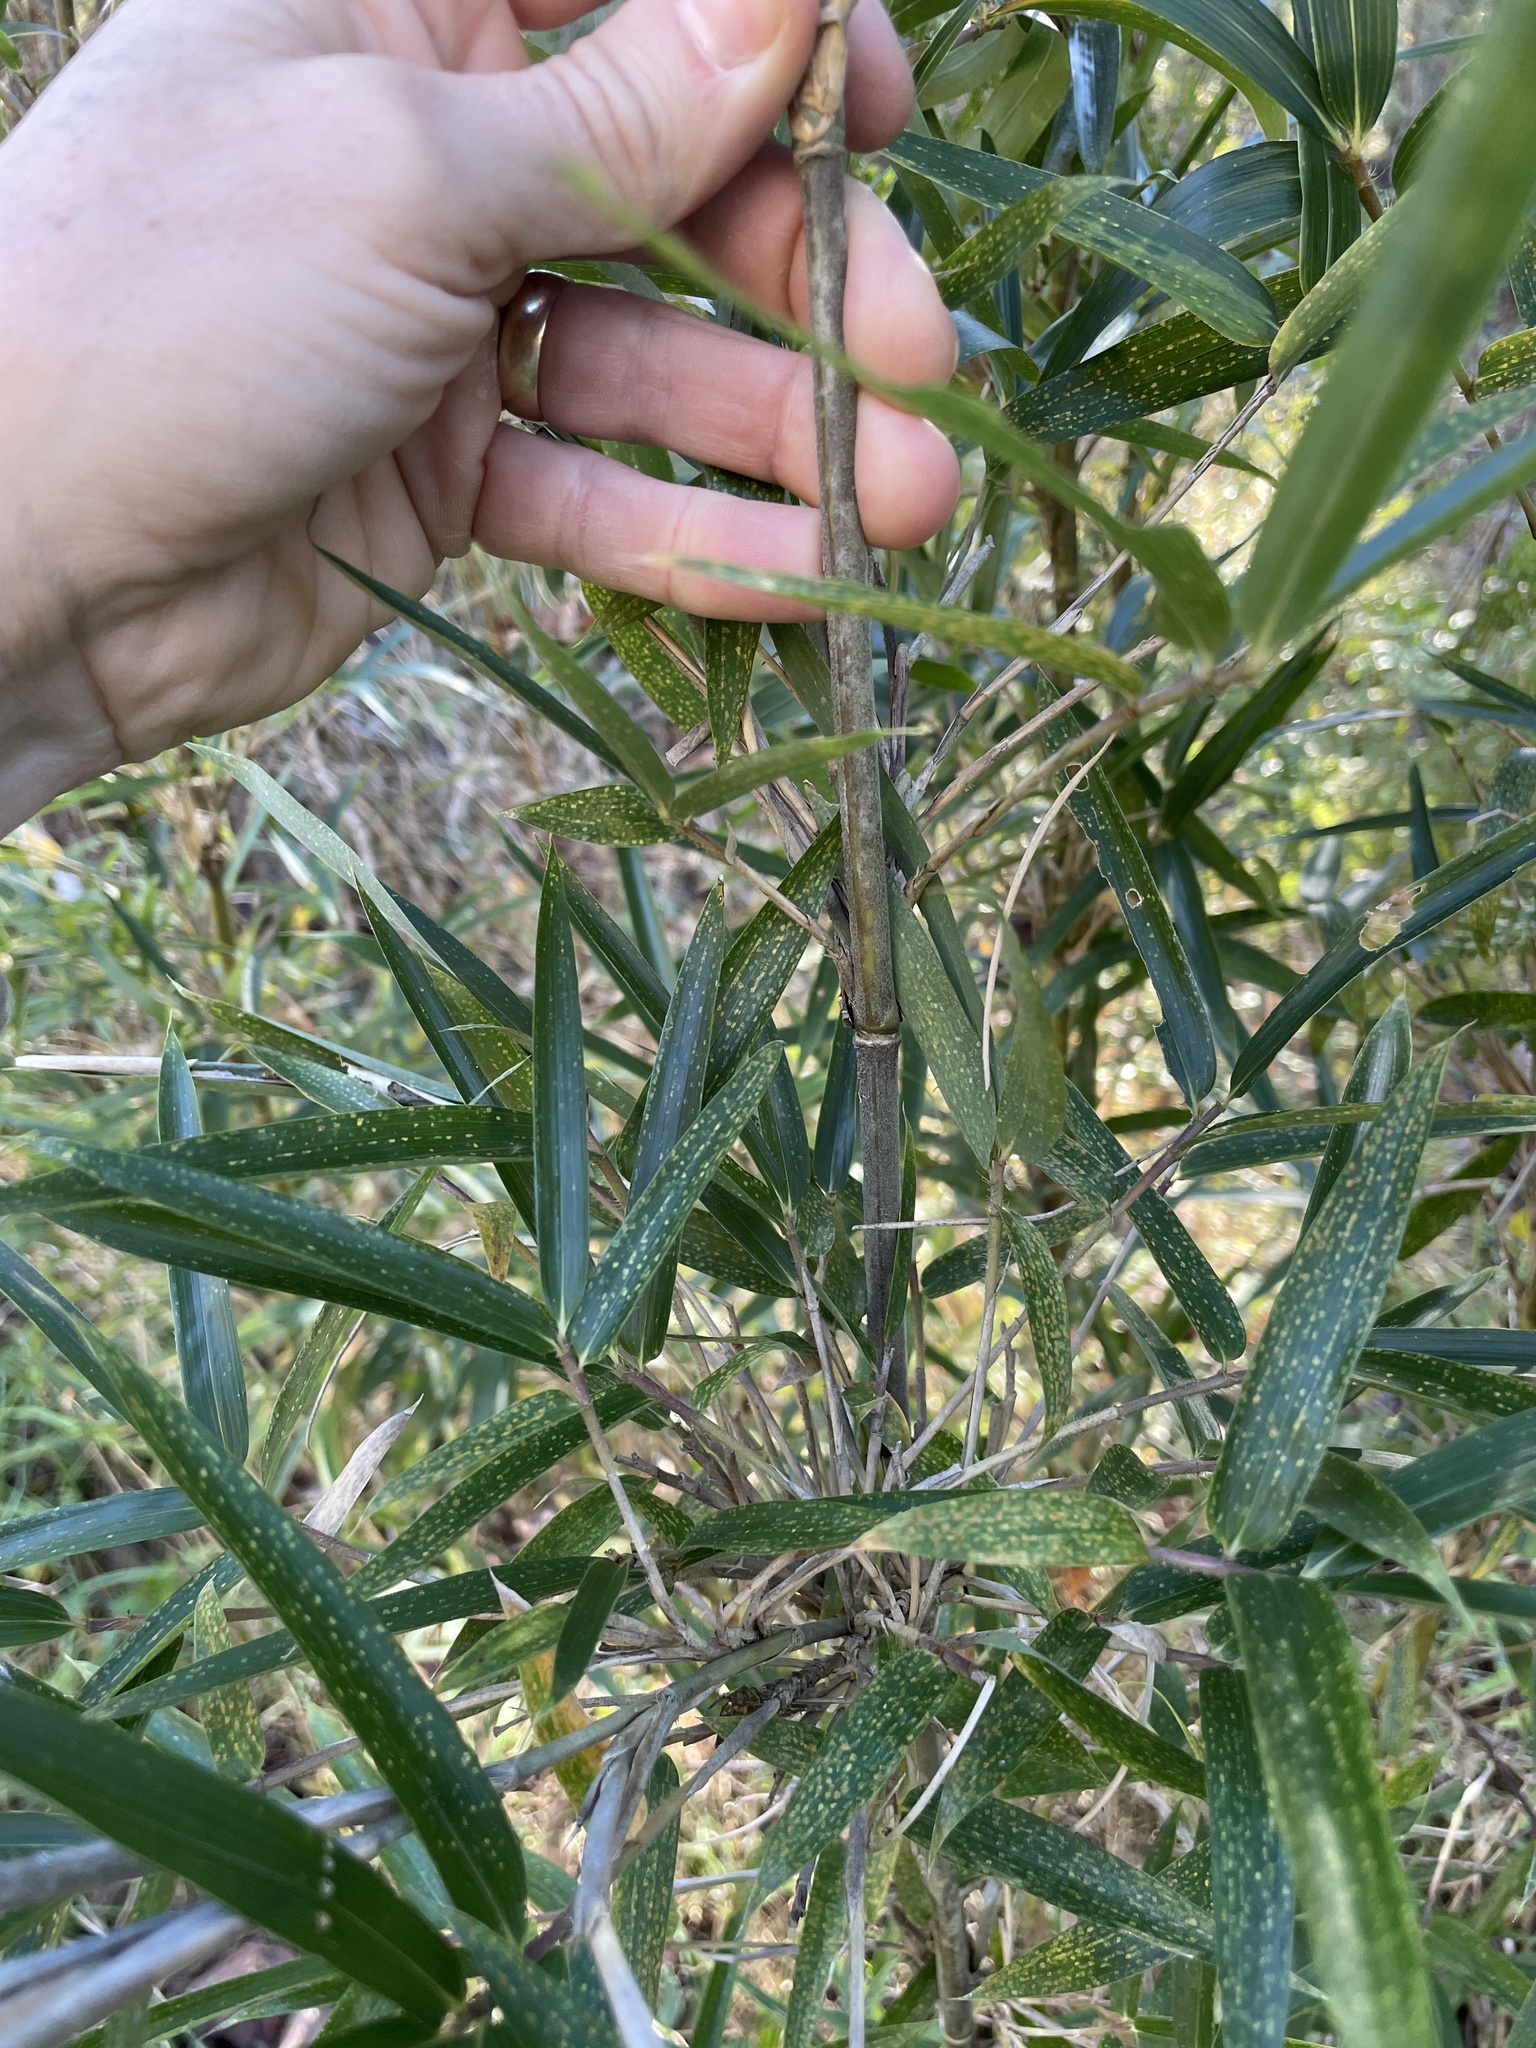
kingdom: Plantae
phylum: Tracheophyta
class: Liliopsida
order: Poales
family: Poaceae
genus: Arundinaria
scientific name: Arundinaria gigantea
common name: Giant cane
